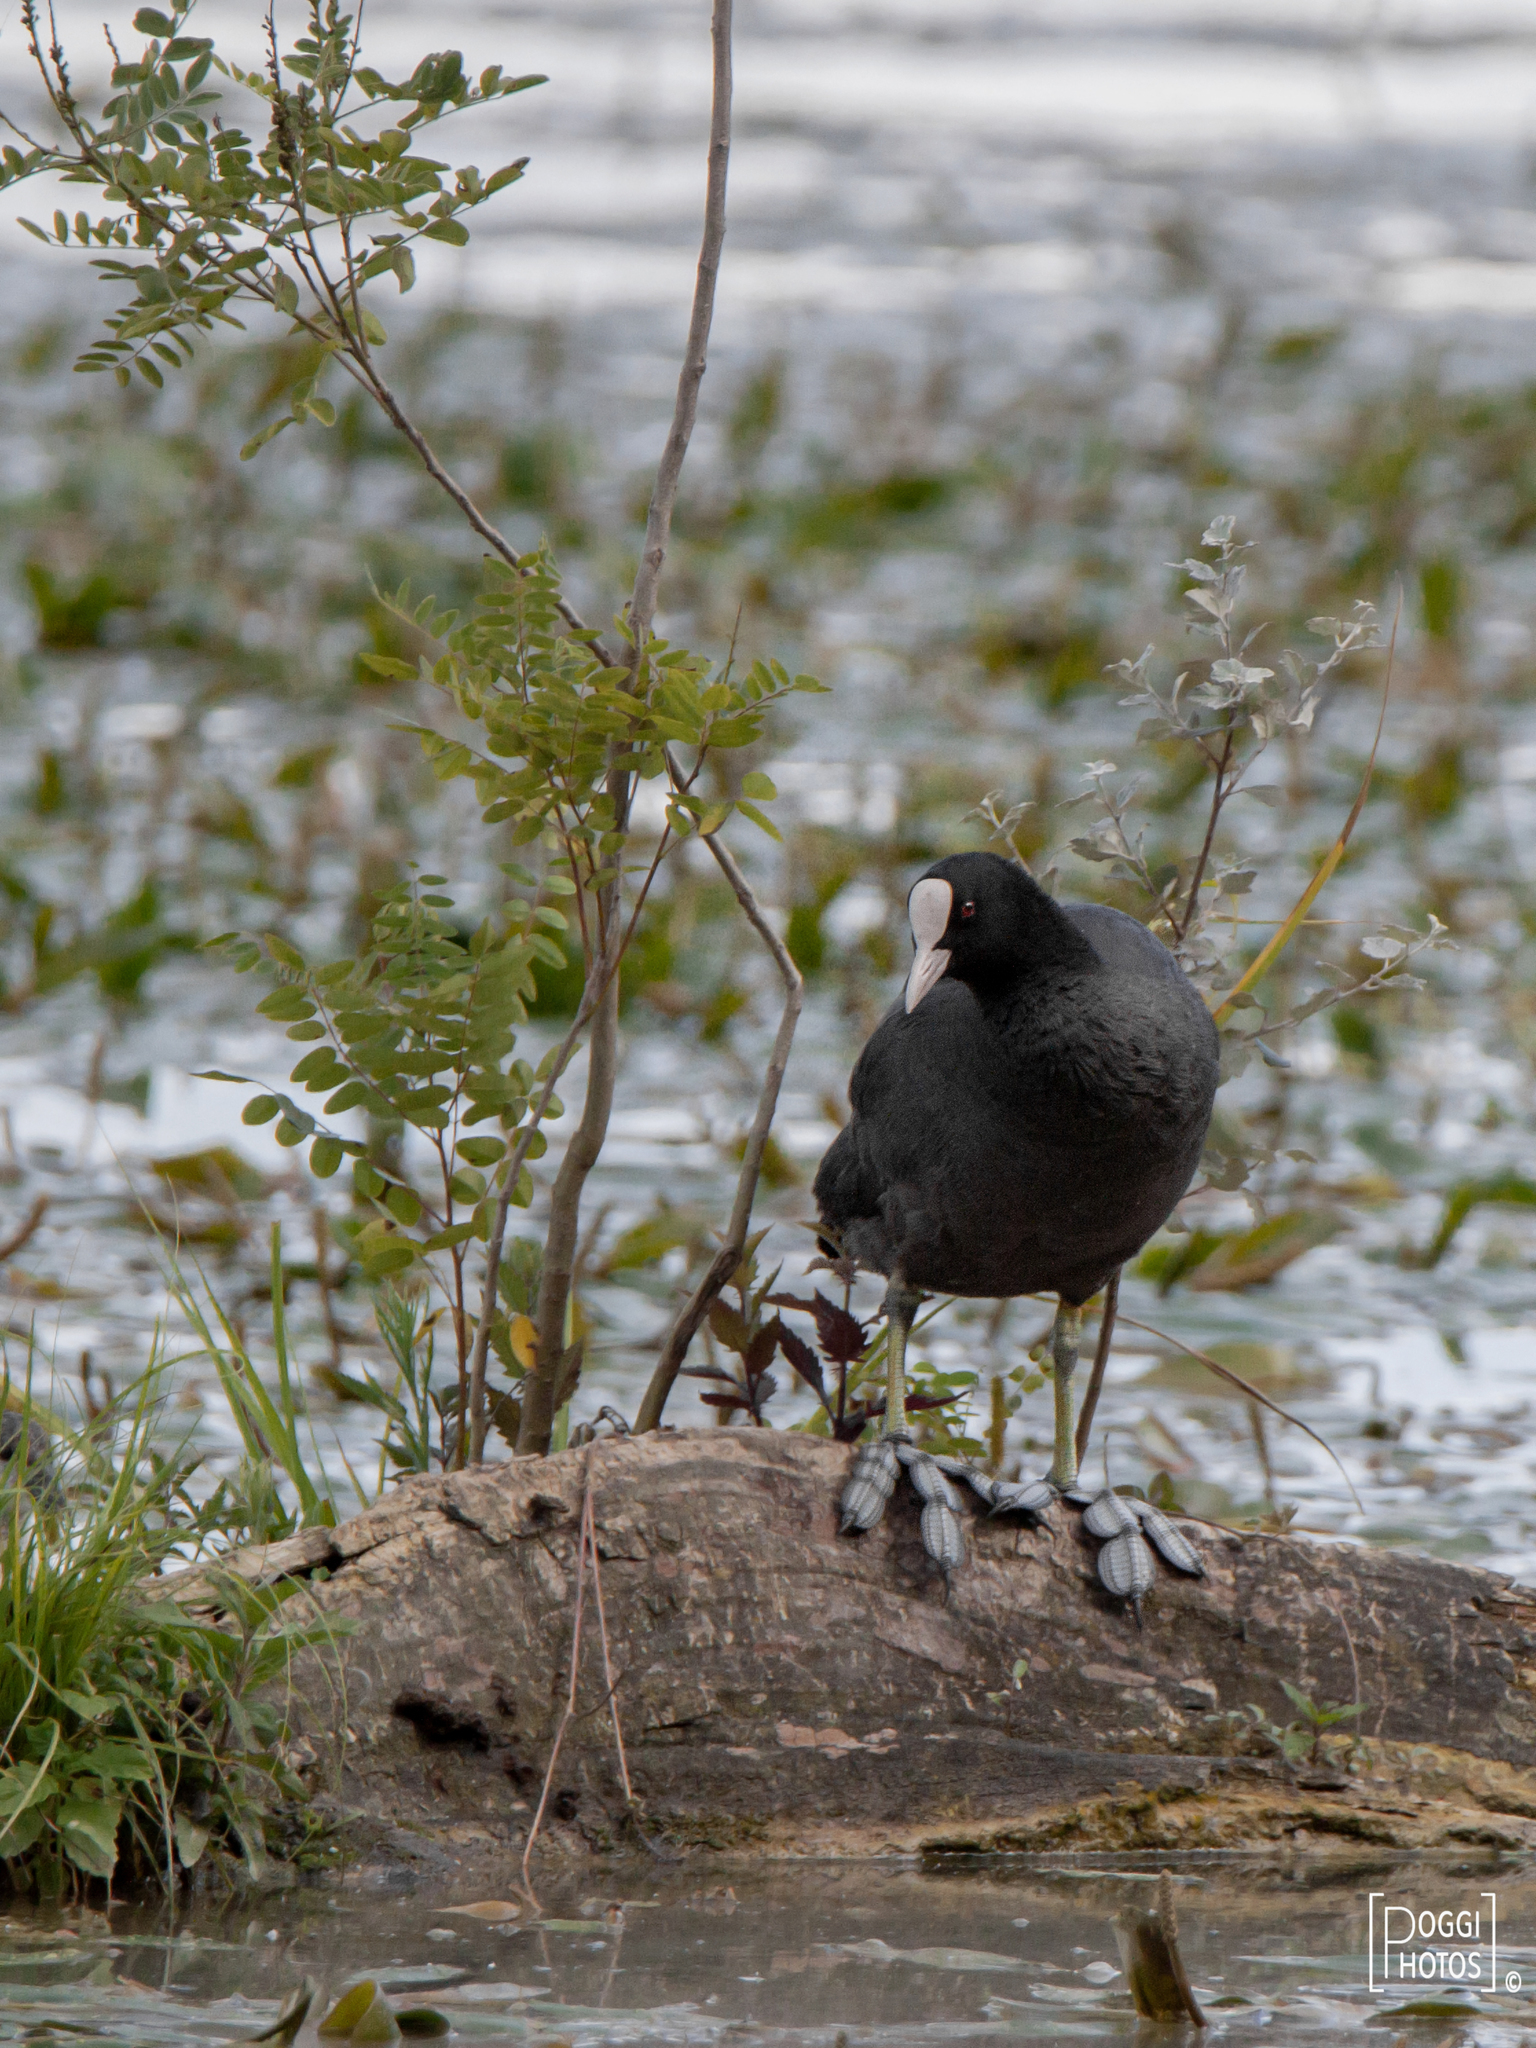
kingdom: Animalia
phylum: Chordata
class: Aves
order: Gruiformes
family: Rallidae
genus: Fulica
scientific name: Fulica atra
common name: Eurasian coot
